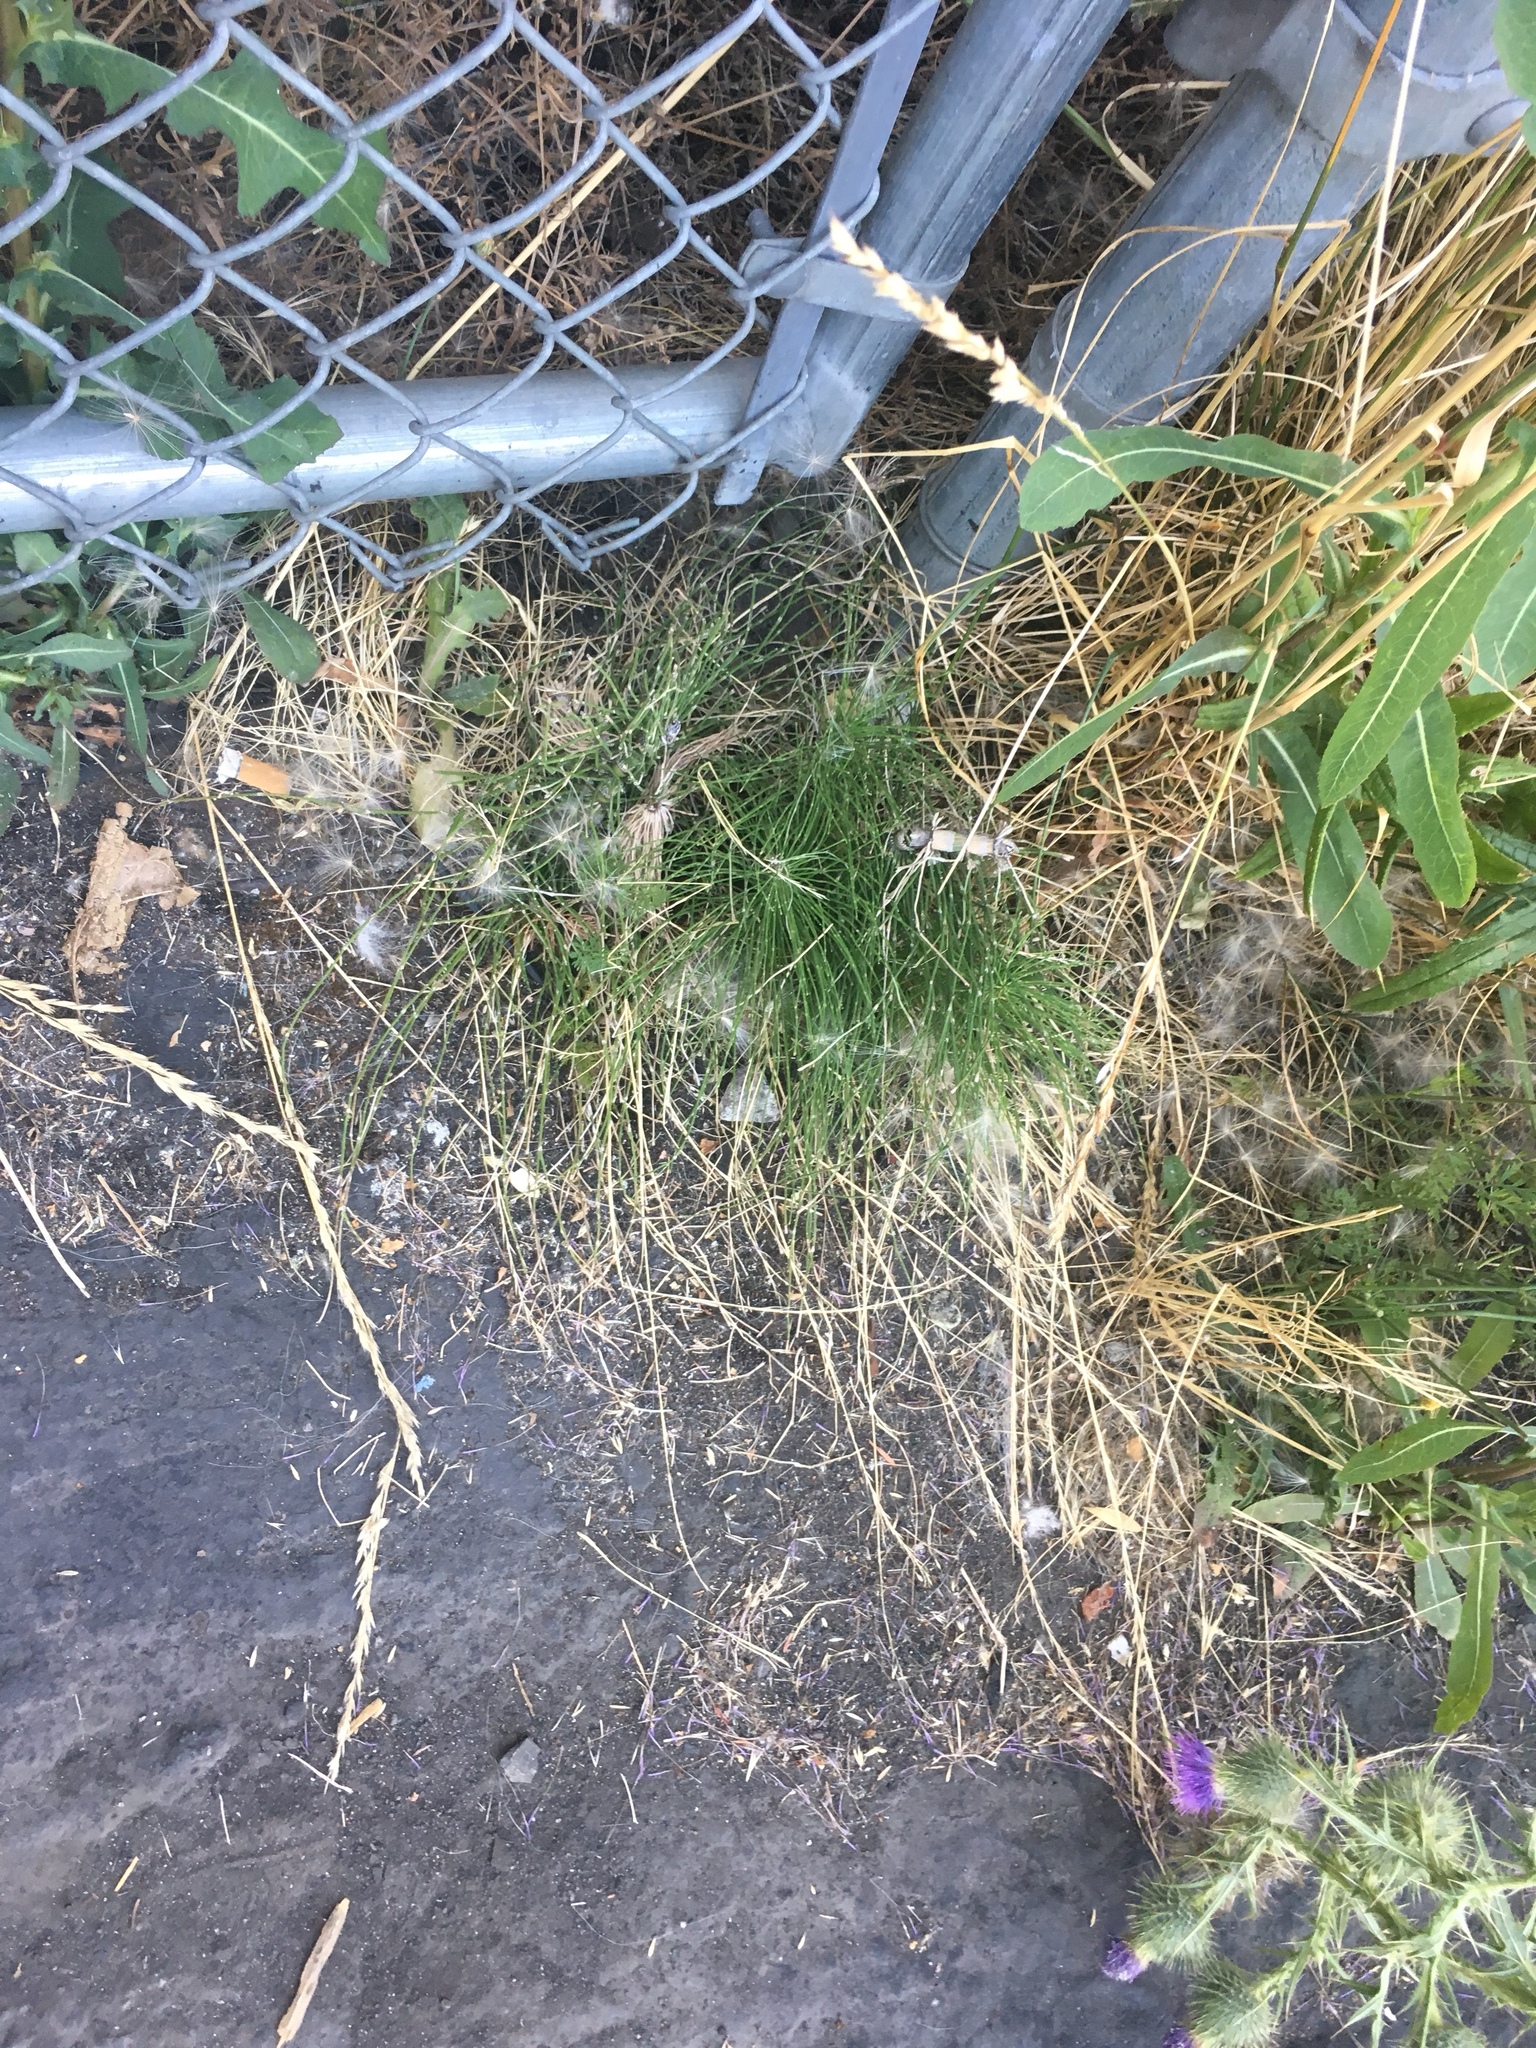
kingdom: Plantae
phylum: Tracheophyta
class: Polypodiopsida
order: Equisetales
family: Equisetaceae
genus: Equisetum
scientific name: Equisetum telmateia
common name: Great horsetail
